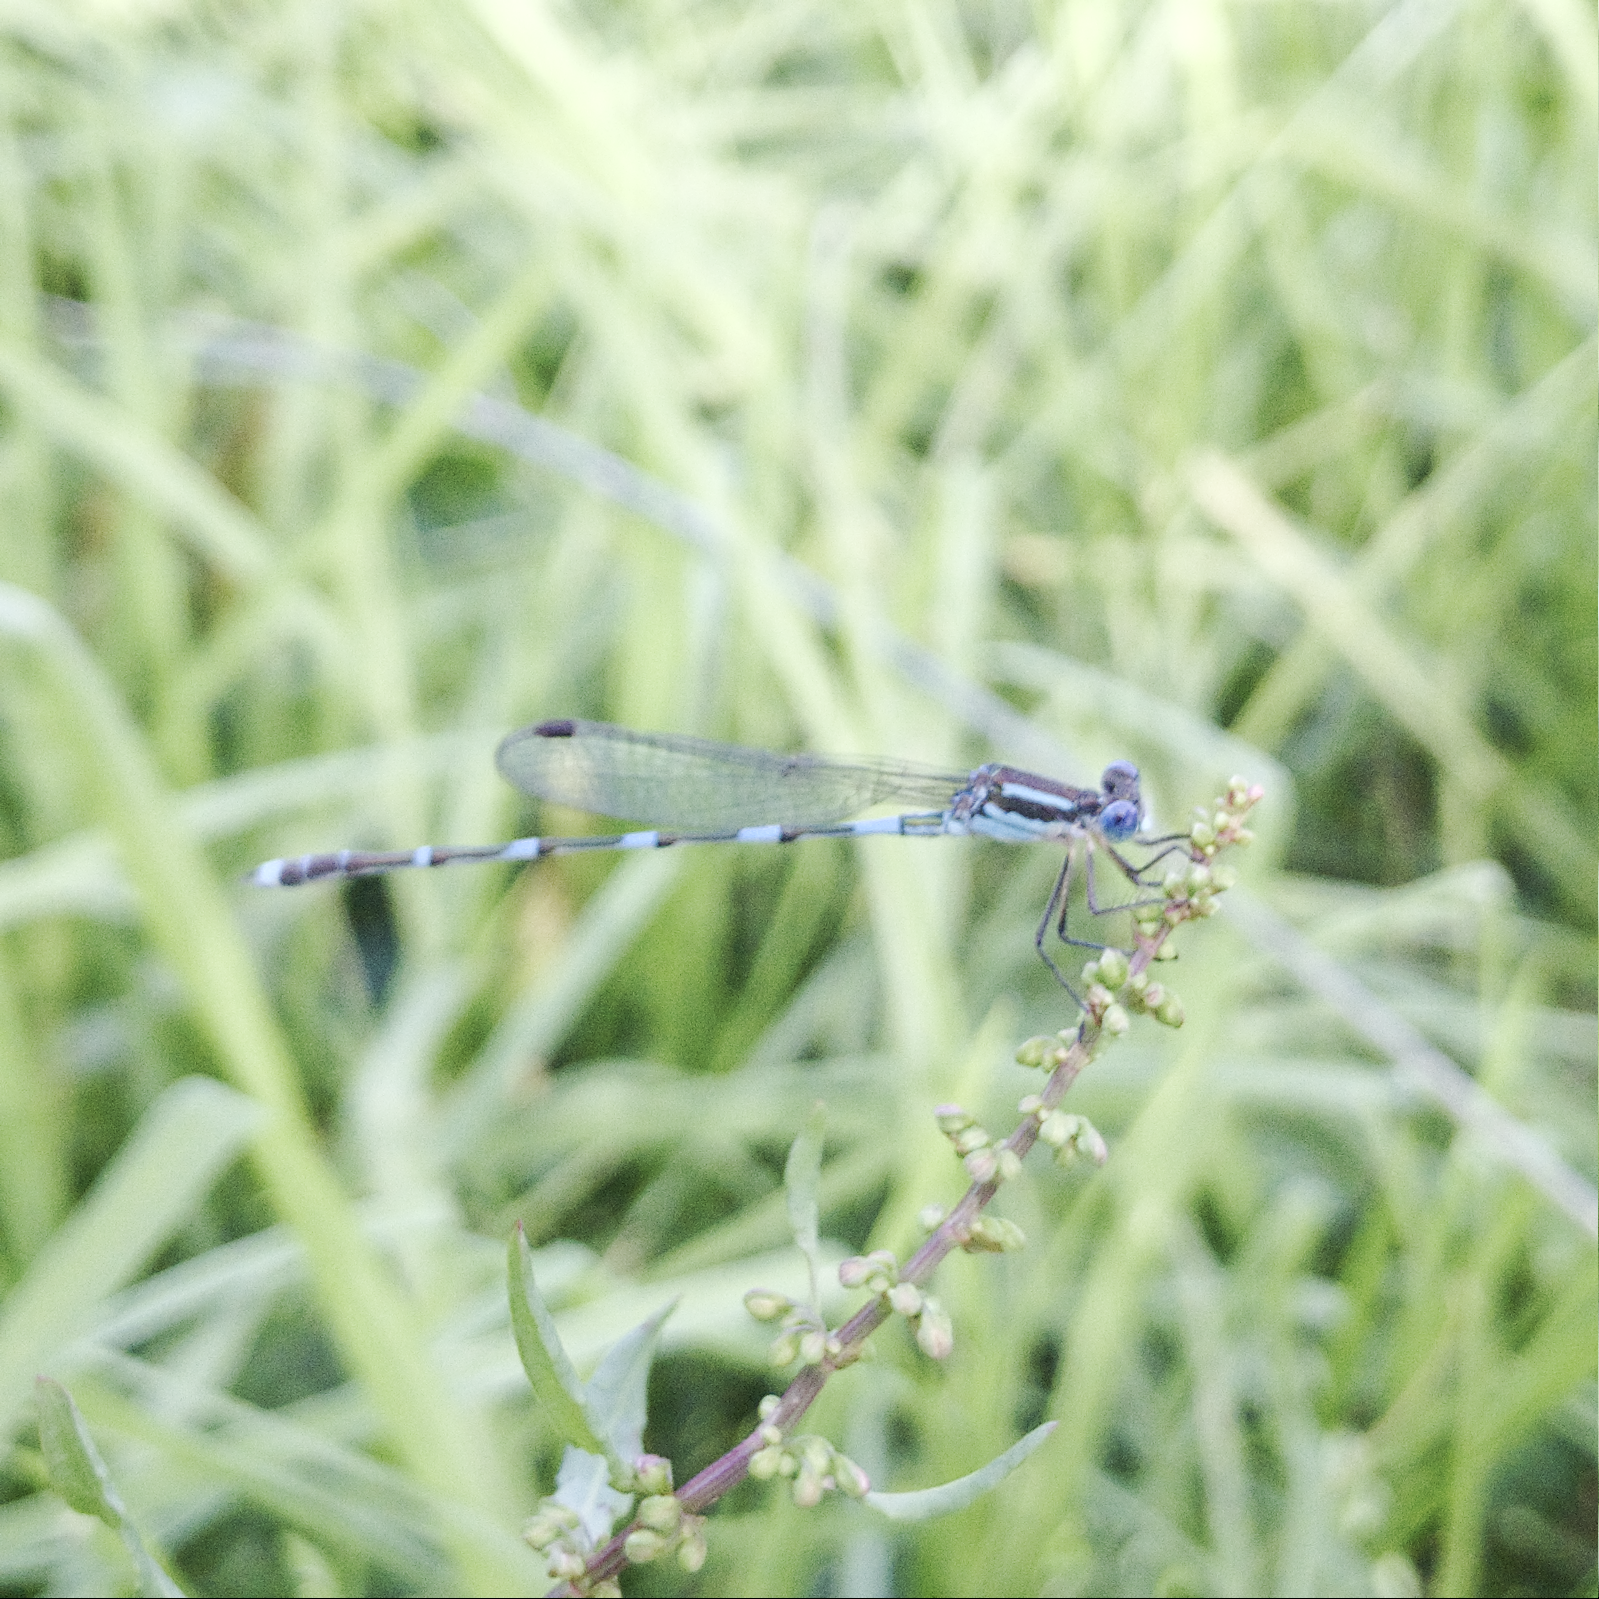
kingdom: Animalia
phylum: Arthropoda
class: Insecta
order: Odonata
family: Lestidae
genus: Austrolestes
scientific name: Austrolestes leda
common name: Wandering ringtail
